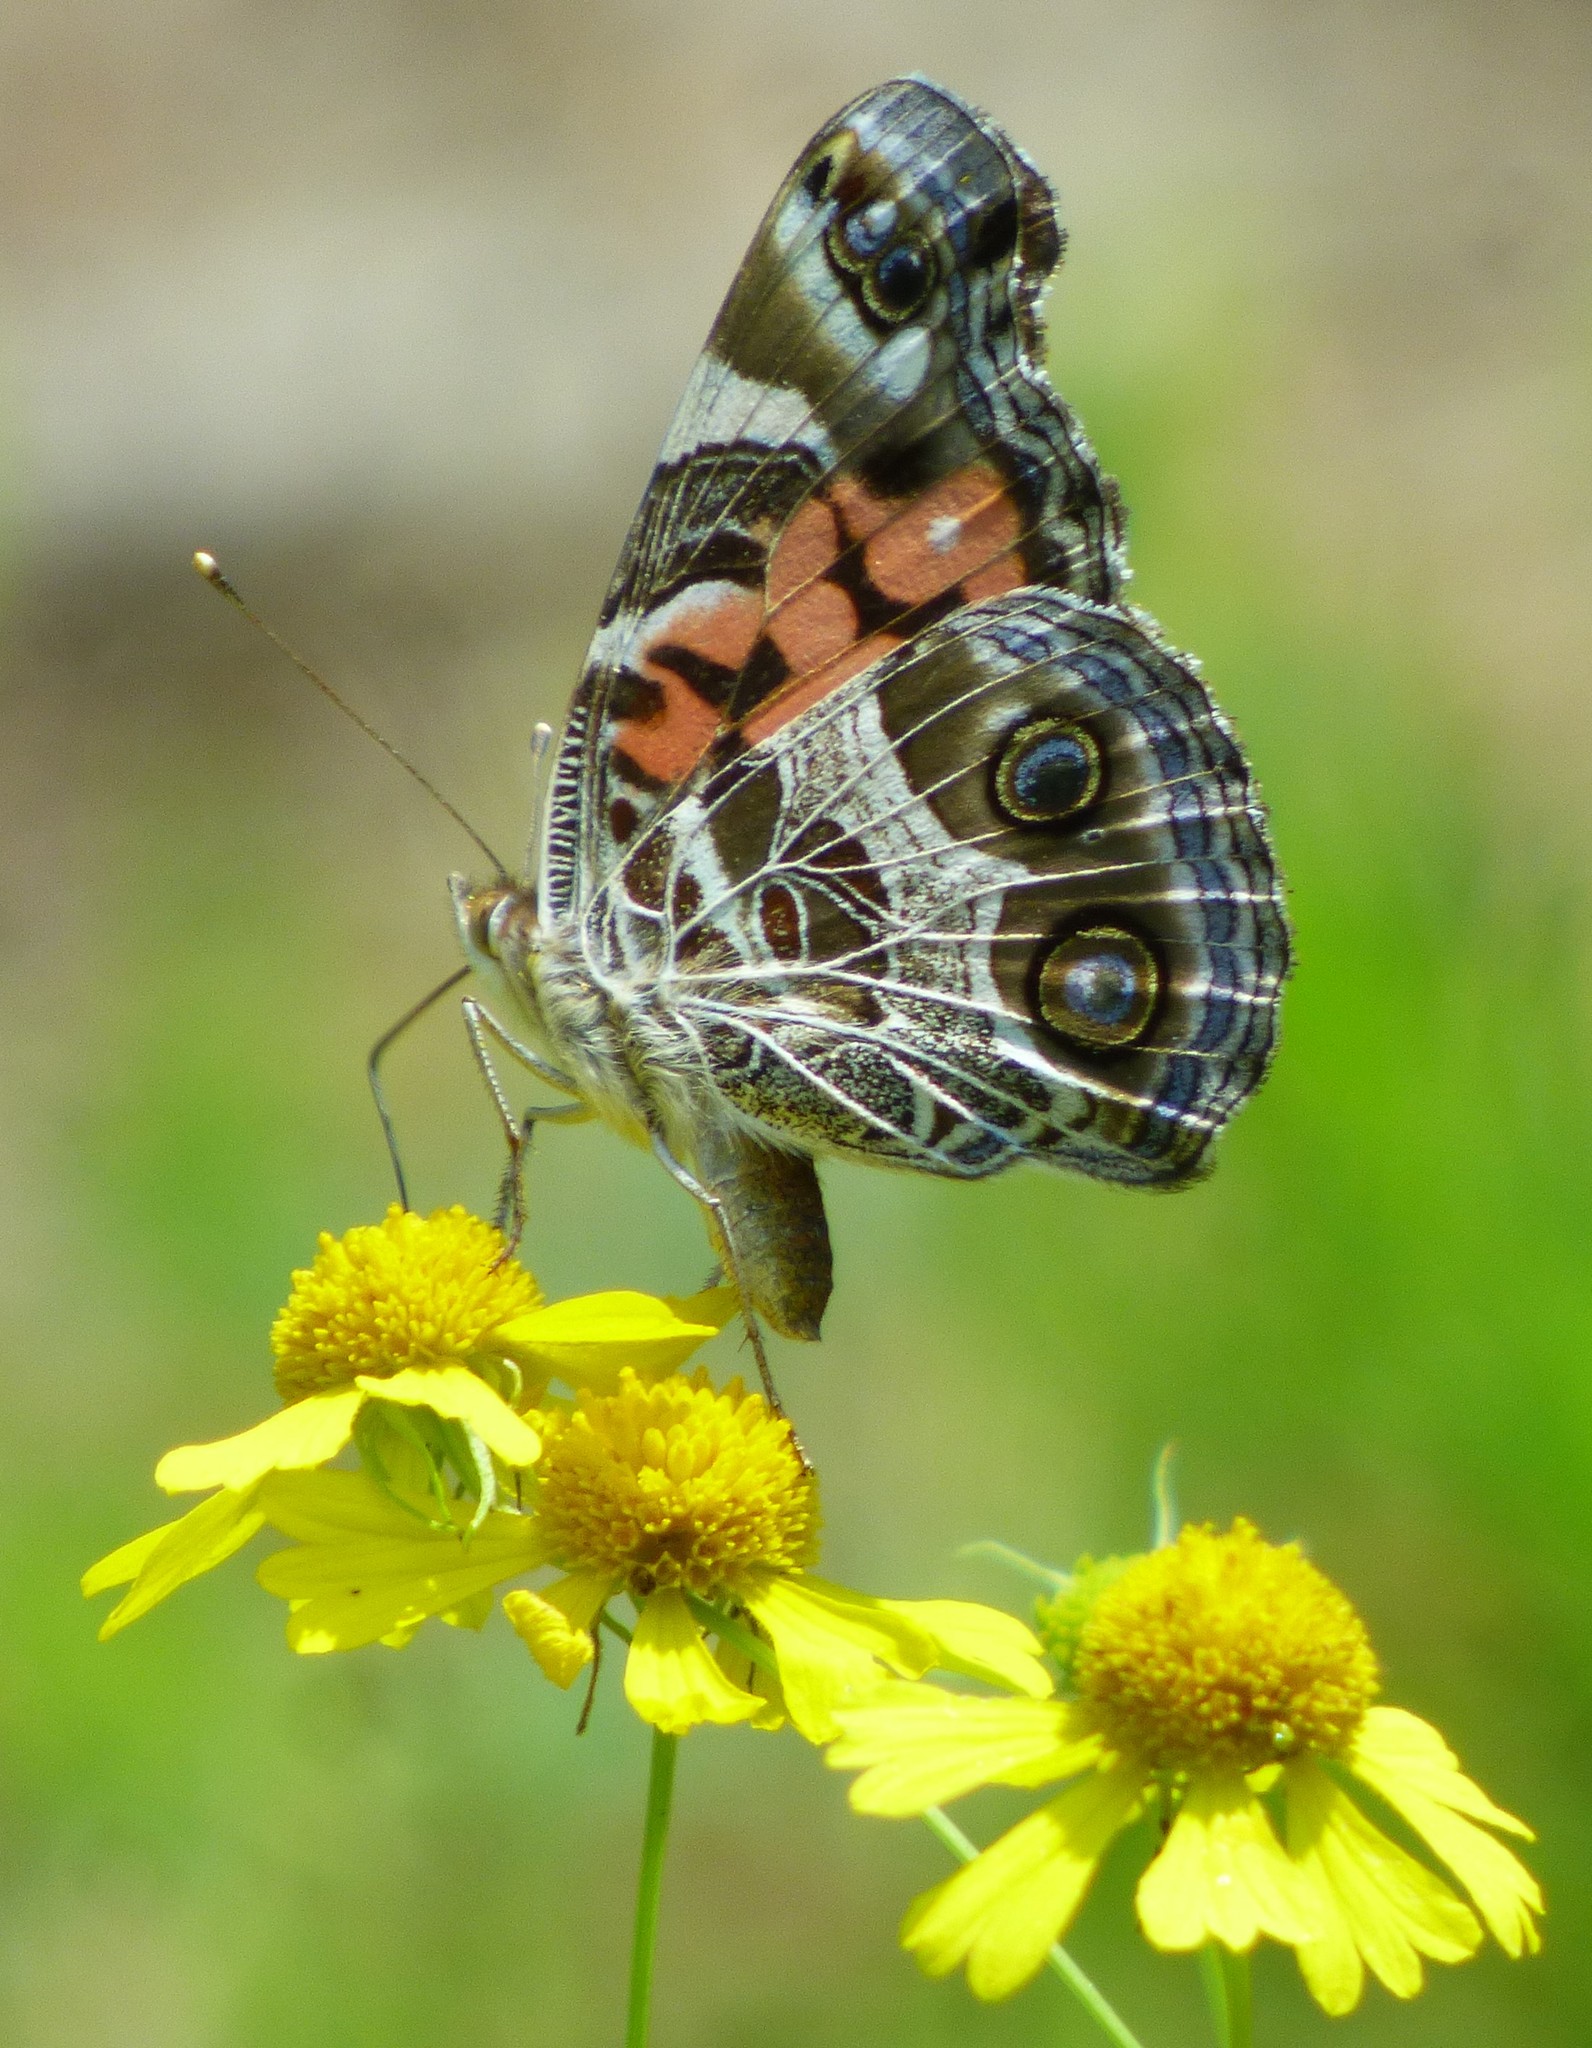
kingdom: Animalia
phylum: Arthropoda
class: Insecta
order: Lepidoptera
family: Nymphalidae
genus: Vanessa
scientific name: Vanessa virginiensis
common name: American lady
